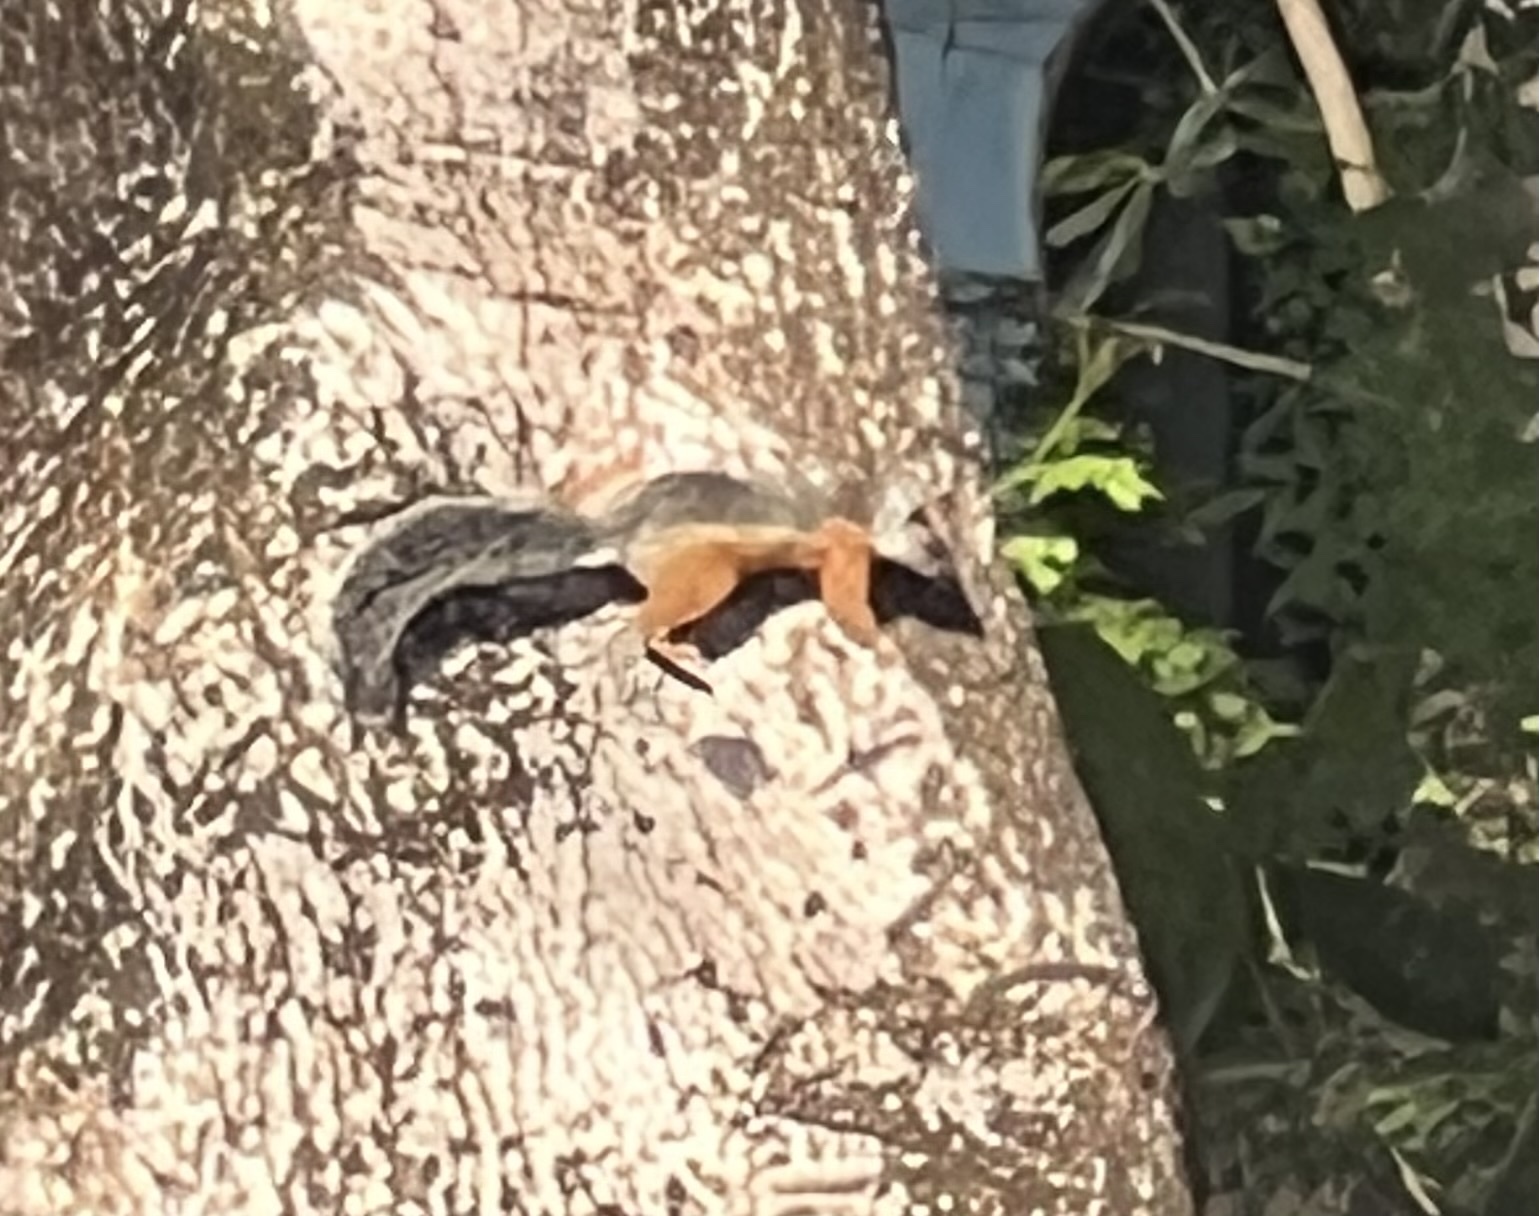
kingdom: Animalia
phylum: Chordata
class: Mammalia
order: Rodentia
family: Sciuridae
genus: Sciurus
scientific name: Sciurus variegatoides
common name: Variegated squirrel
